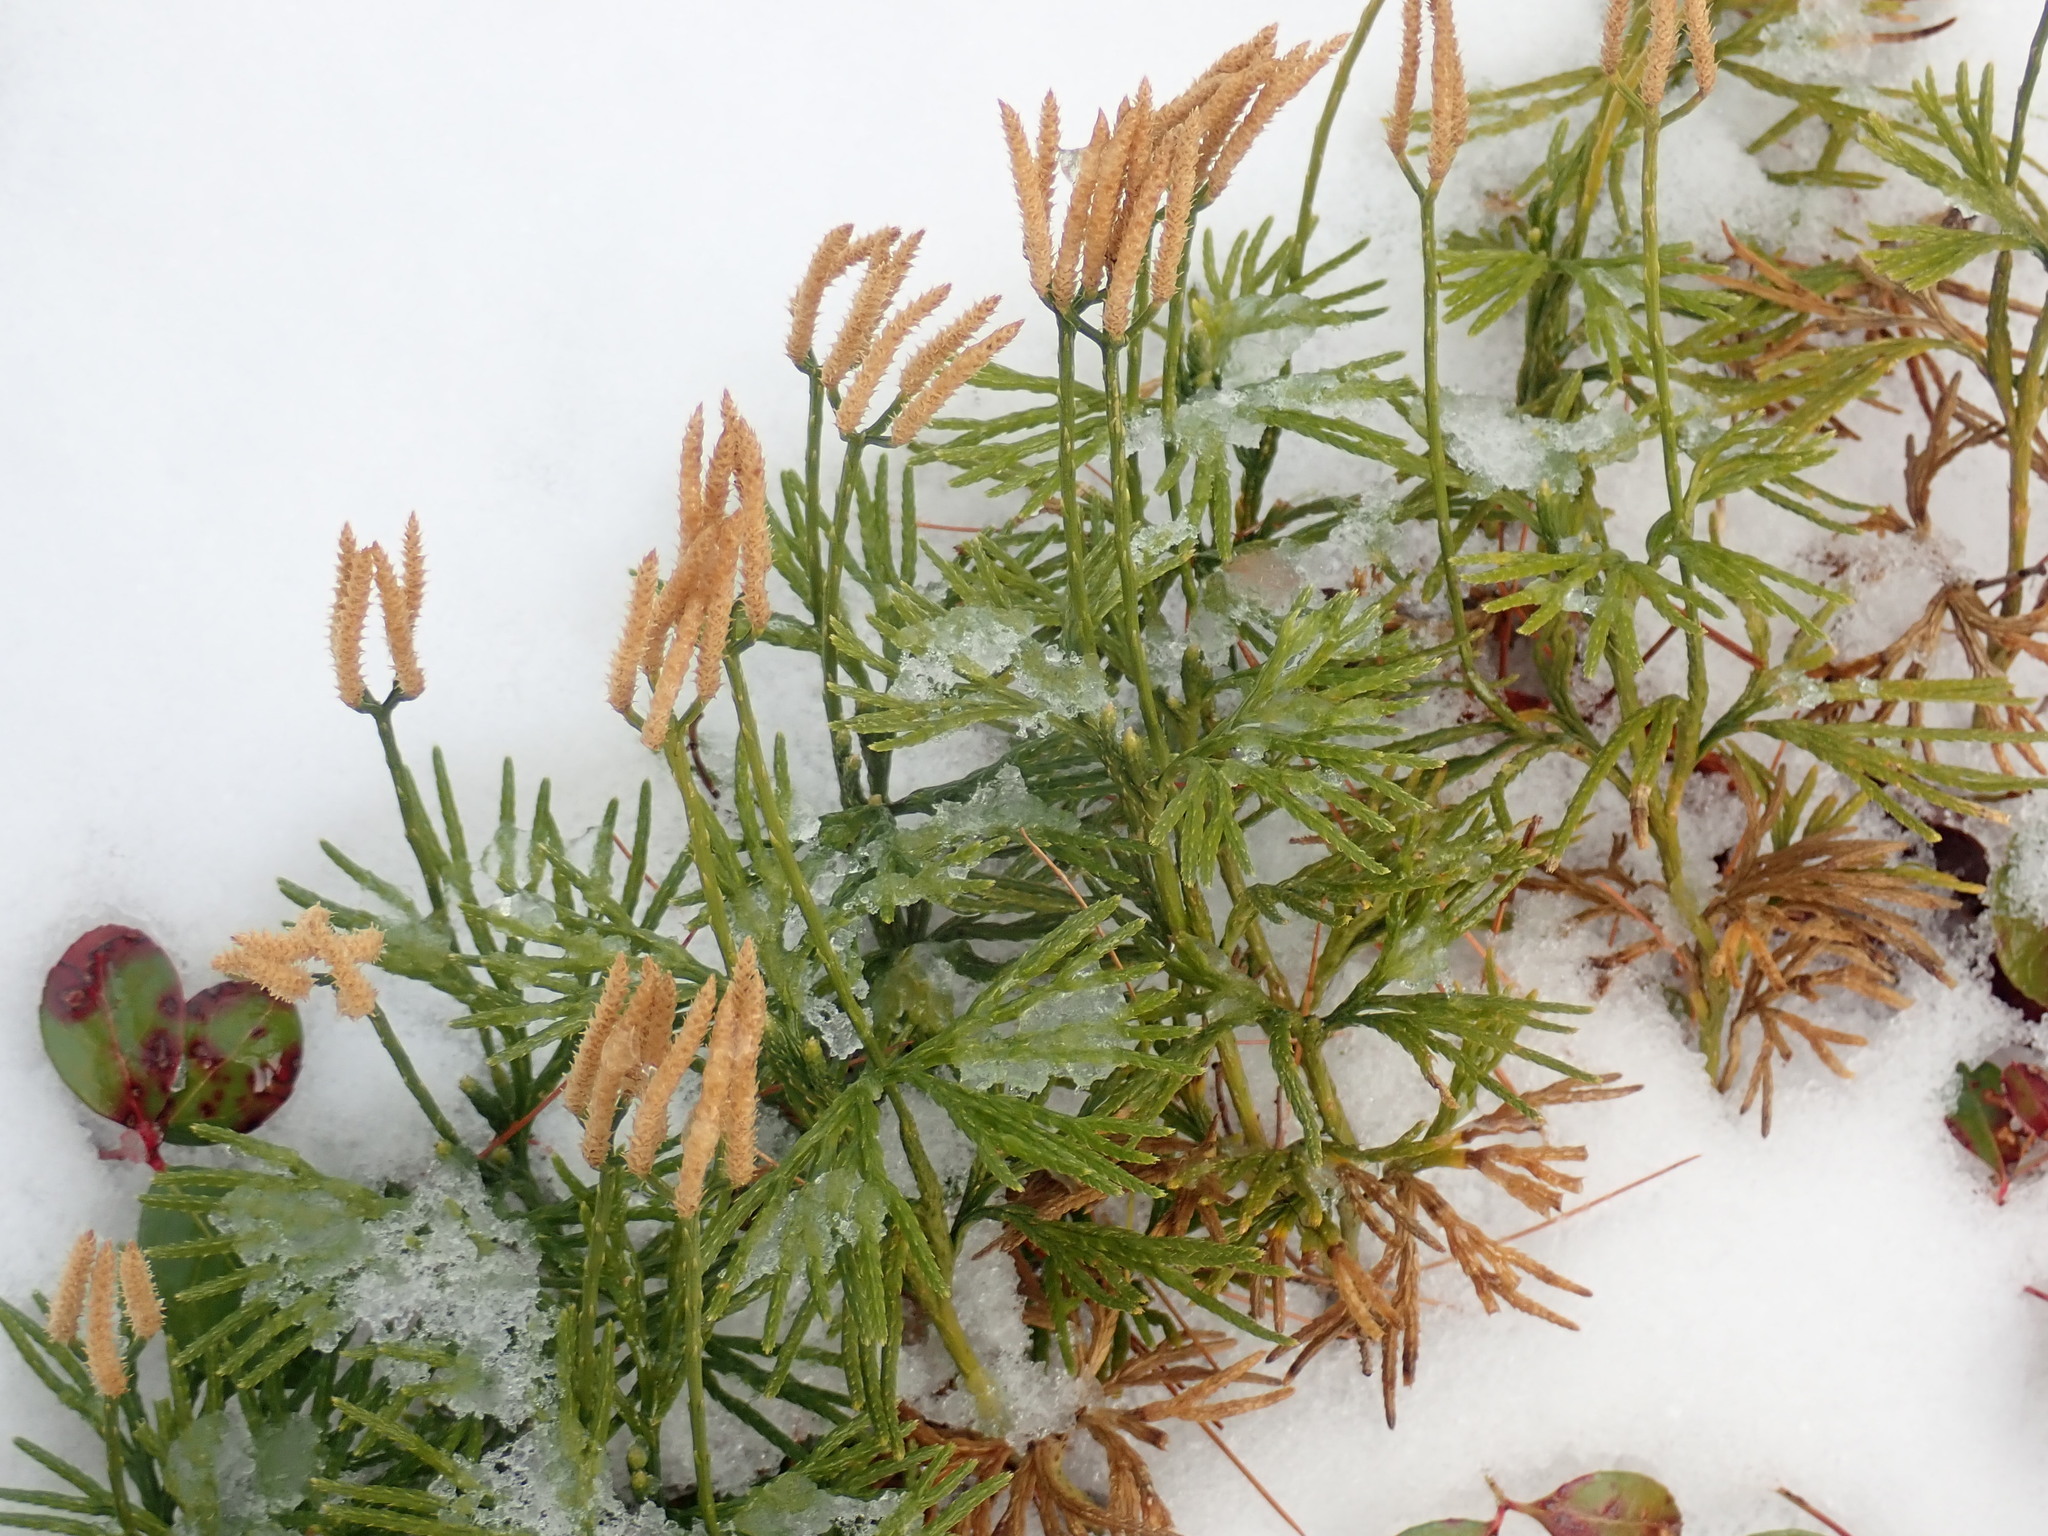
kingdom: Plantae
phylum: Tracheophyta
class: Lycopodiopsida
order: Lycopodiales
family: Lycopodiaceae
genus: Diphasiastrum
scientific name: Diphasiastrum digitatum
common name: Southern running-pine
